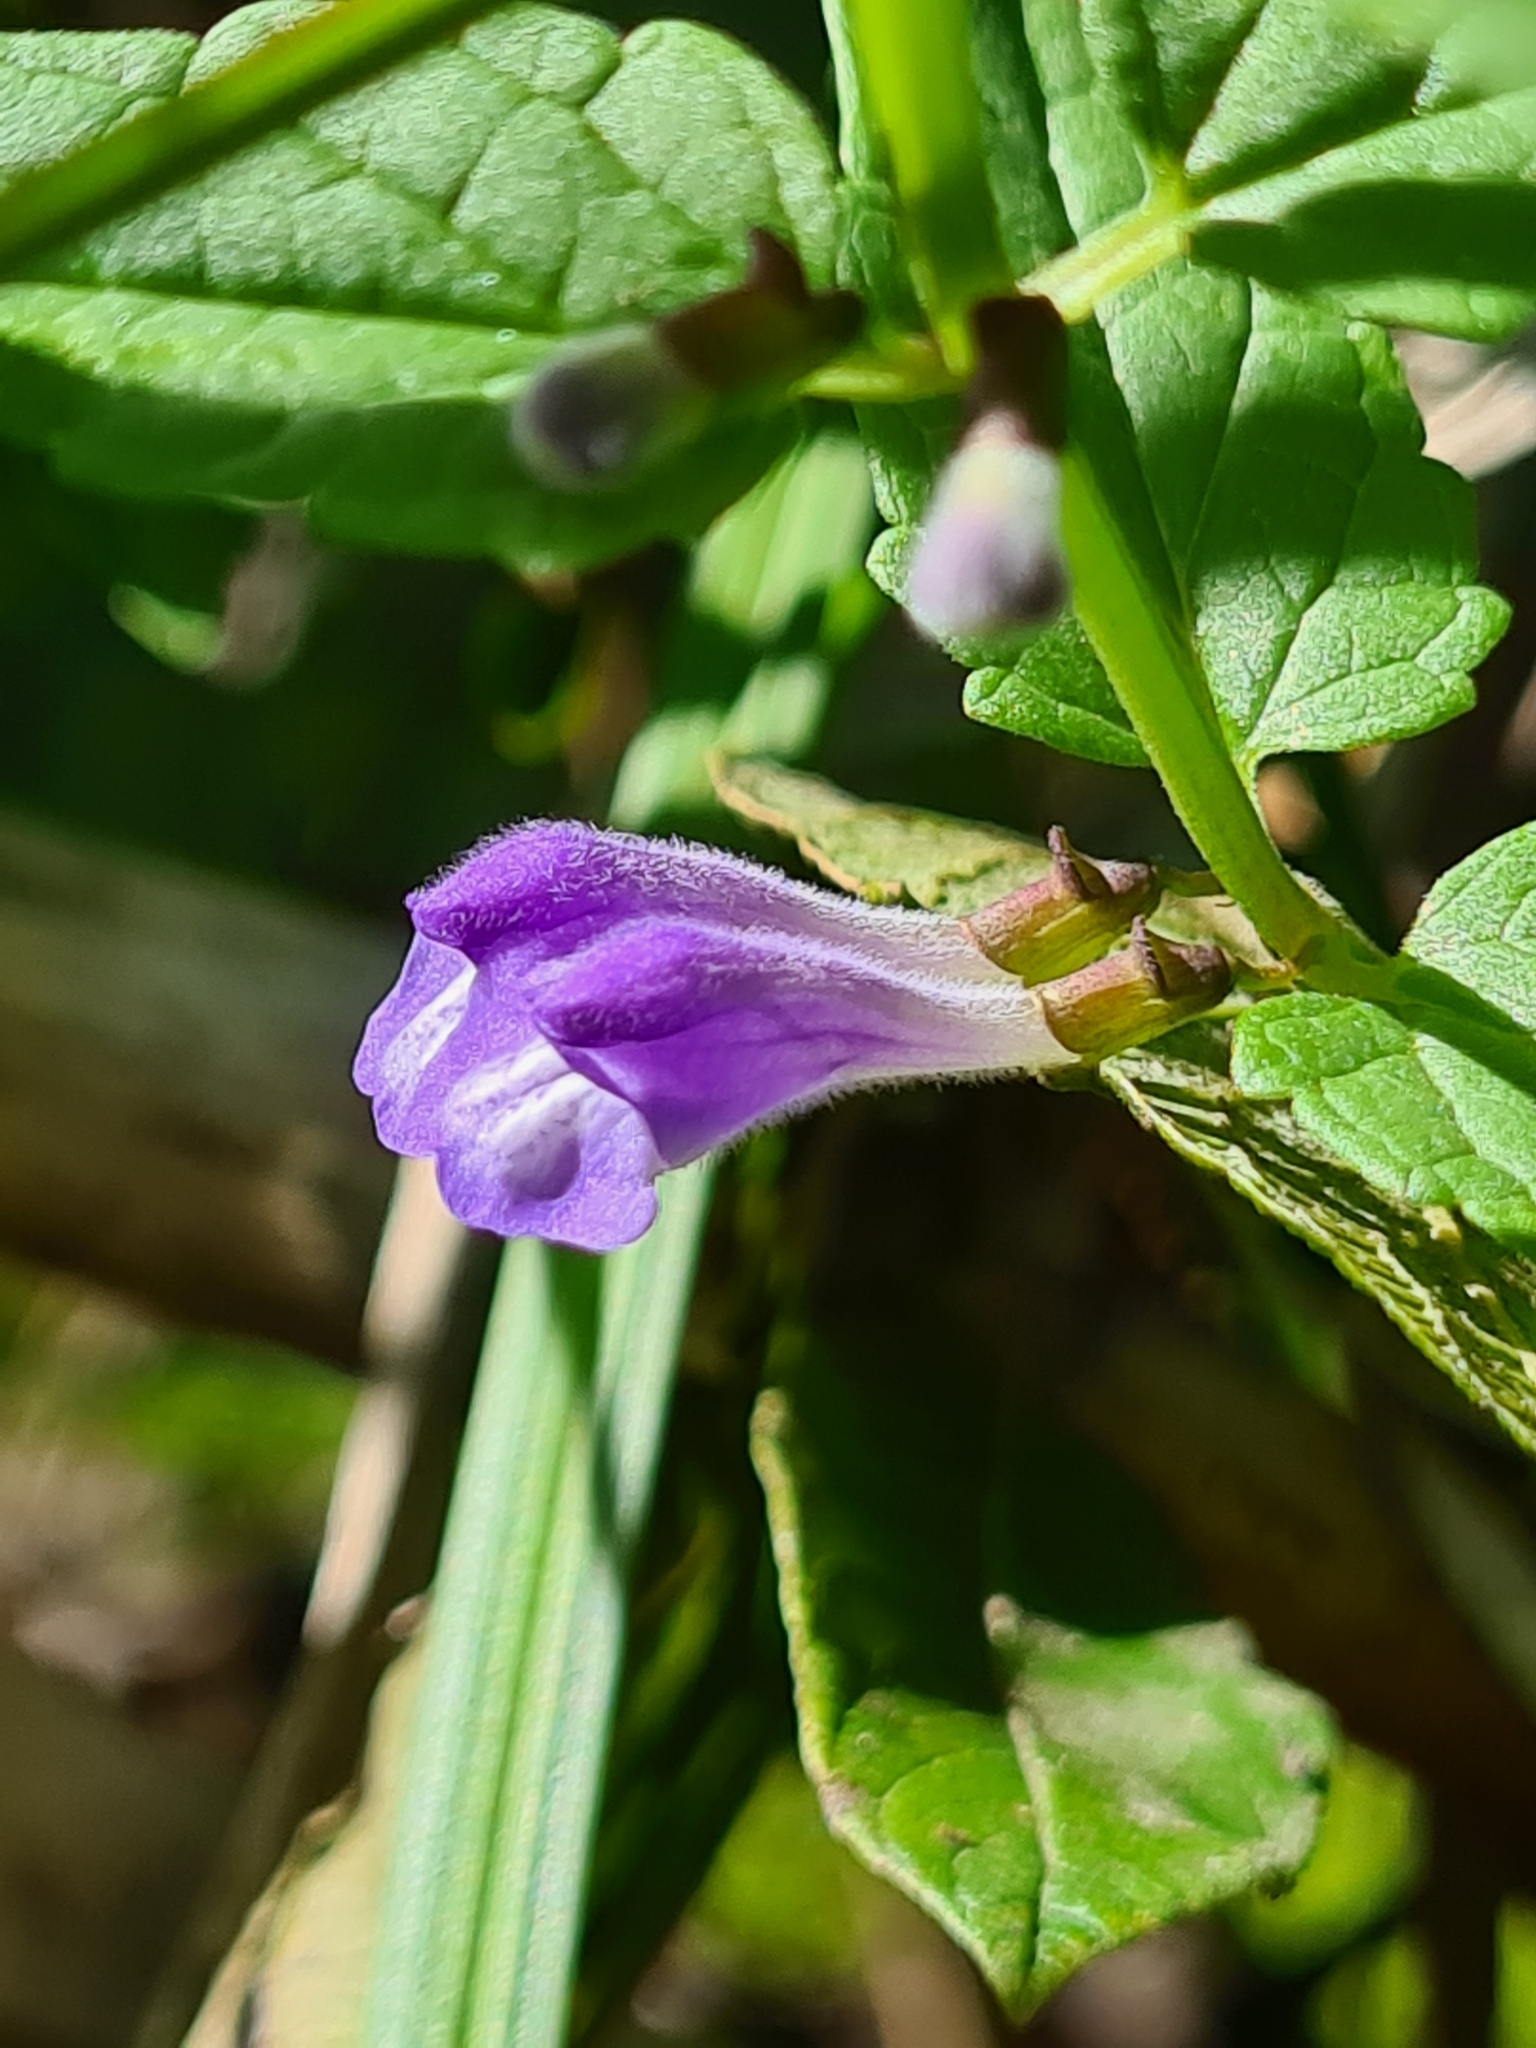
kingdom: Plantae
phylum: Tracheophyta
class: Magnoliopsida
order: Lamiales
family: Lamiaceae
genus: Scutellaria
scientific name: Scutellaria galericulata
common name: Skullcap
